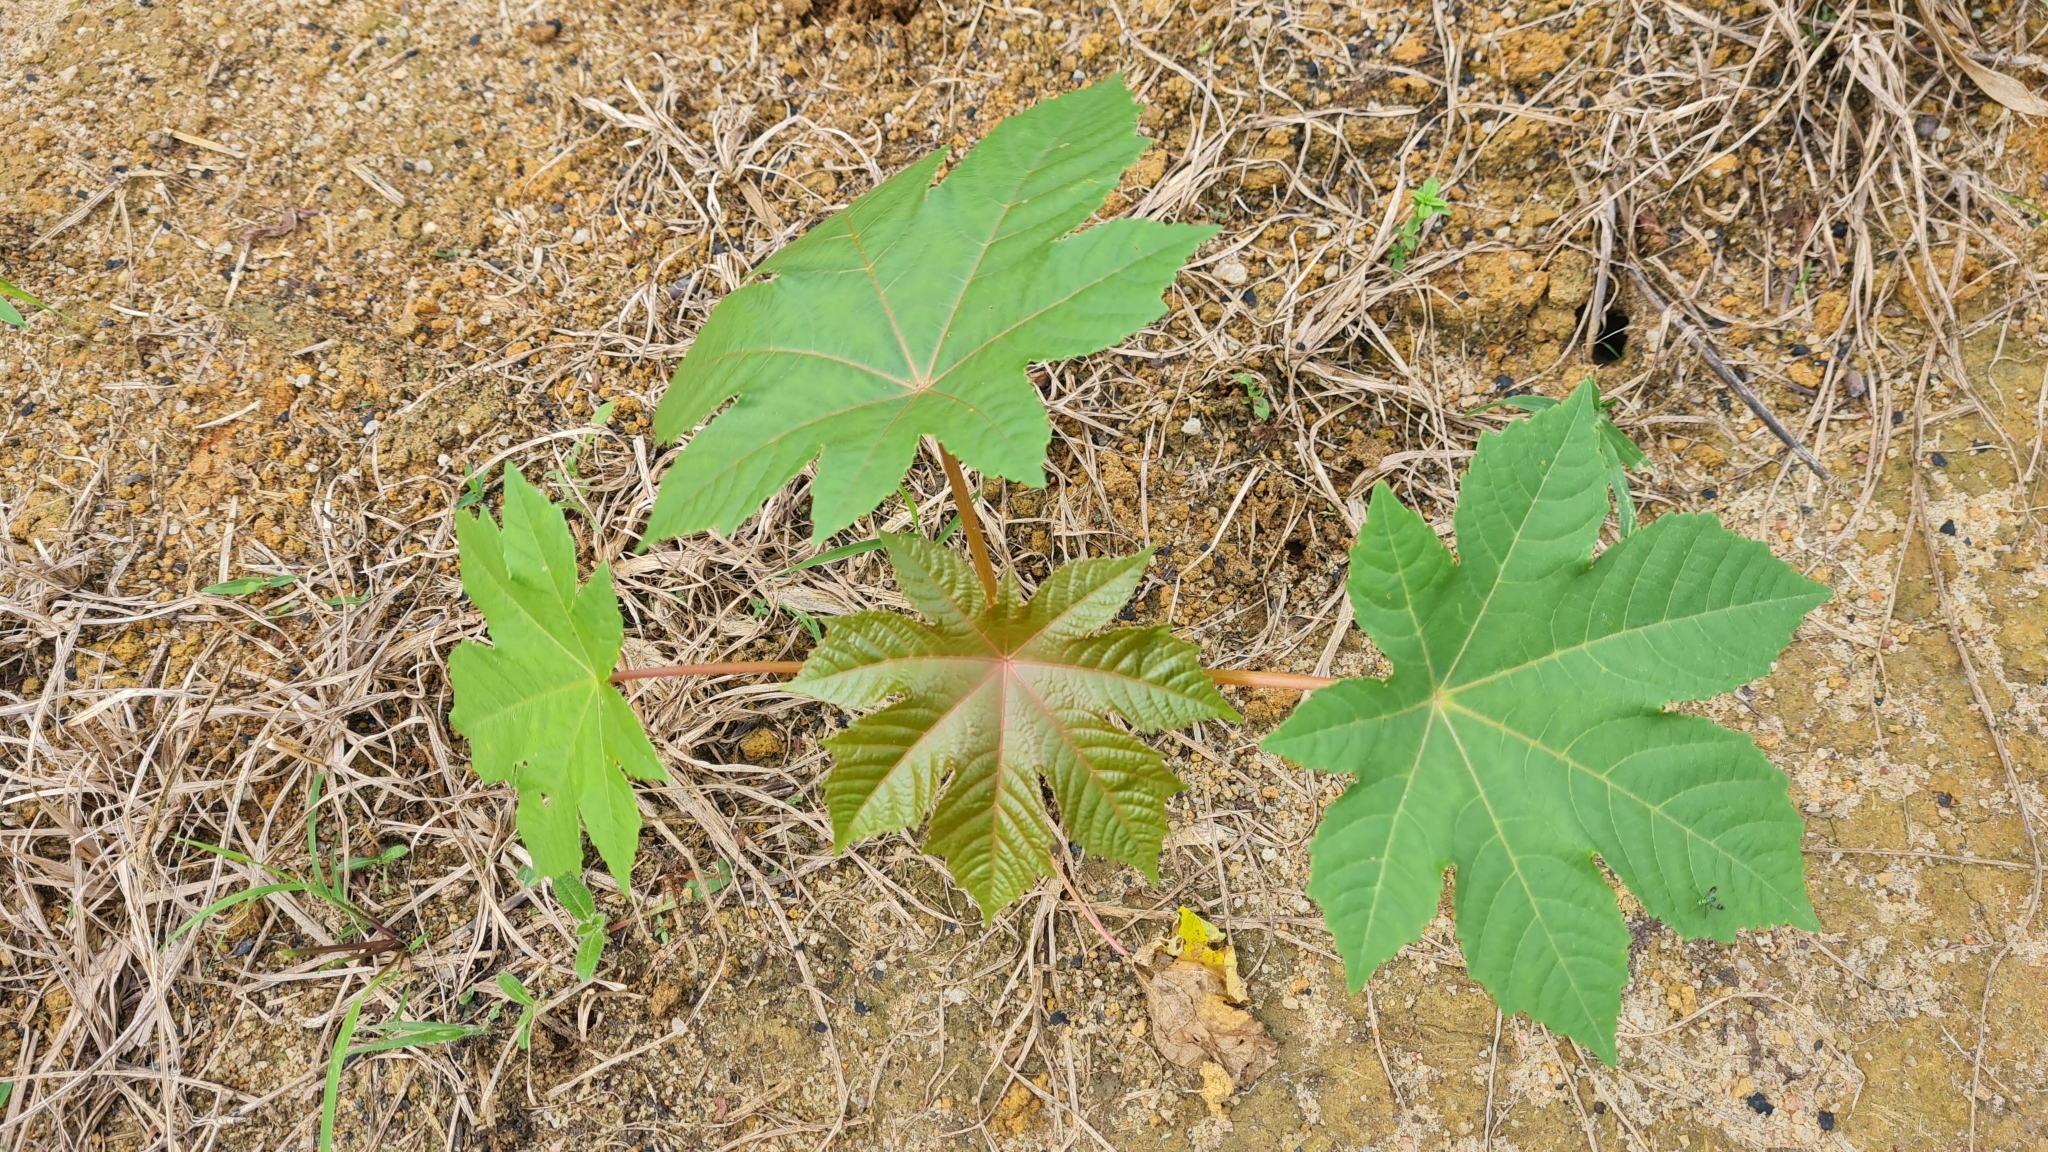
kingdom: Plantae
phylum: Tracheophyta
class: Magnoliopsida
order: Malpighiales
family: Euphorbiaceae
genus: Ricinus
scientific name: Ricinus communis
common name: Castor-oil-plant
